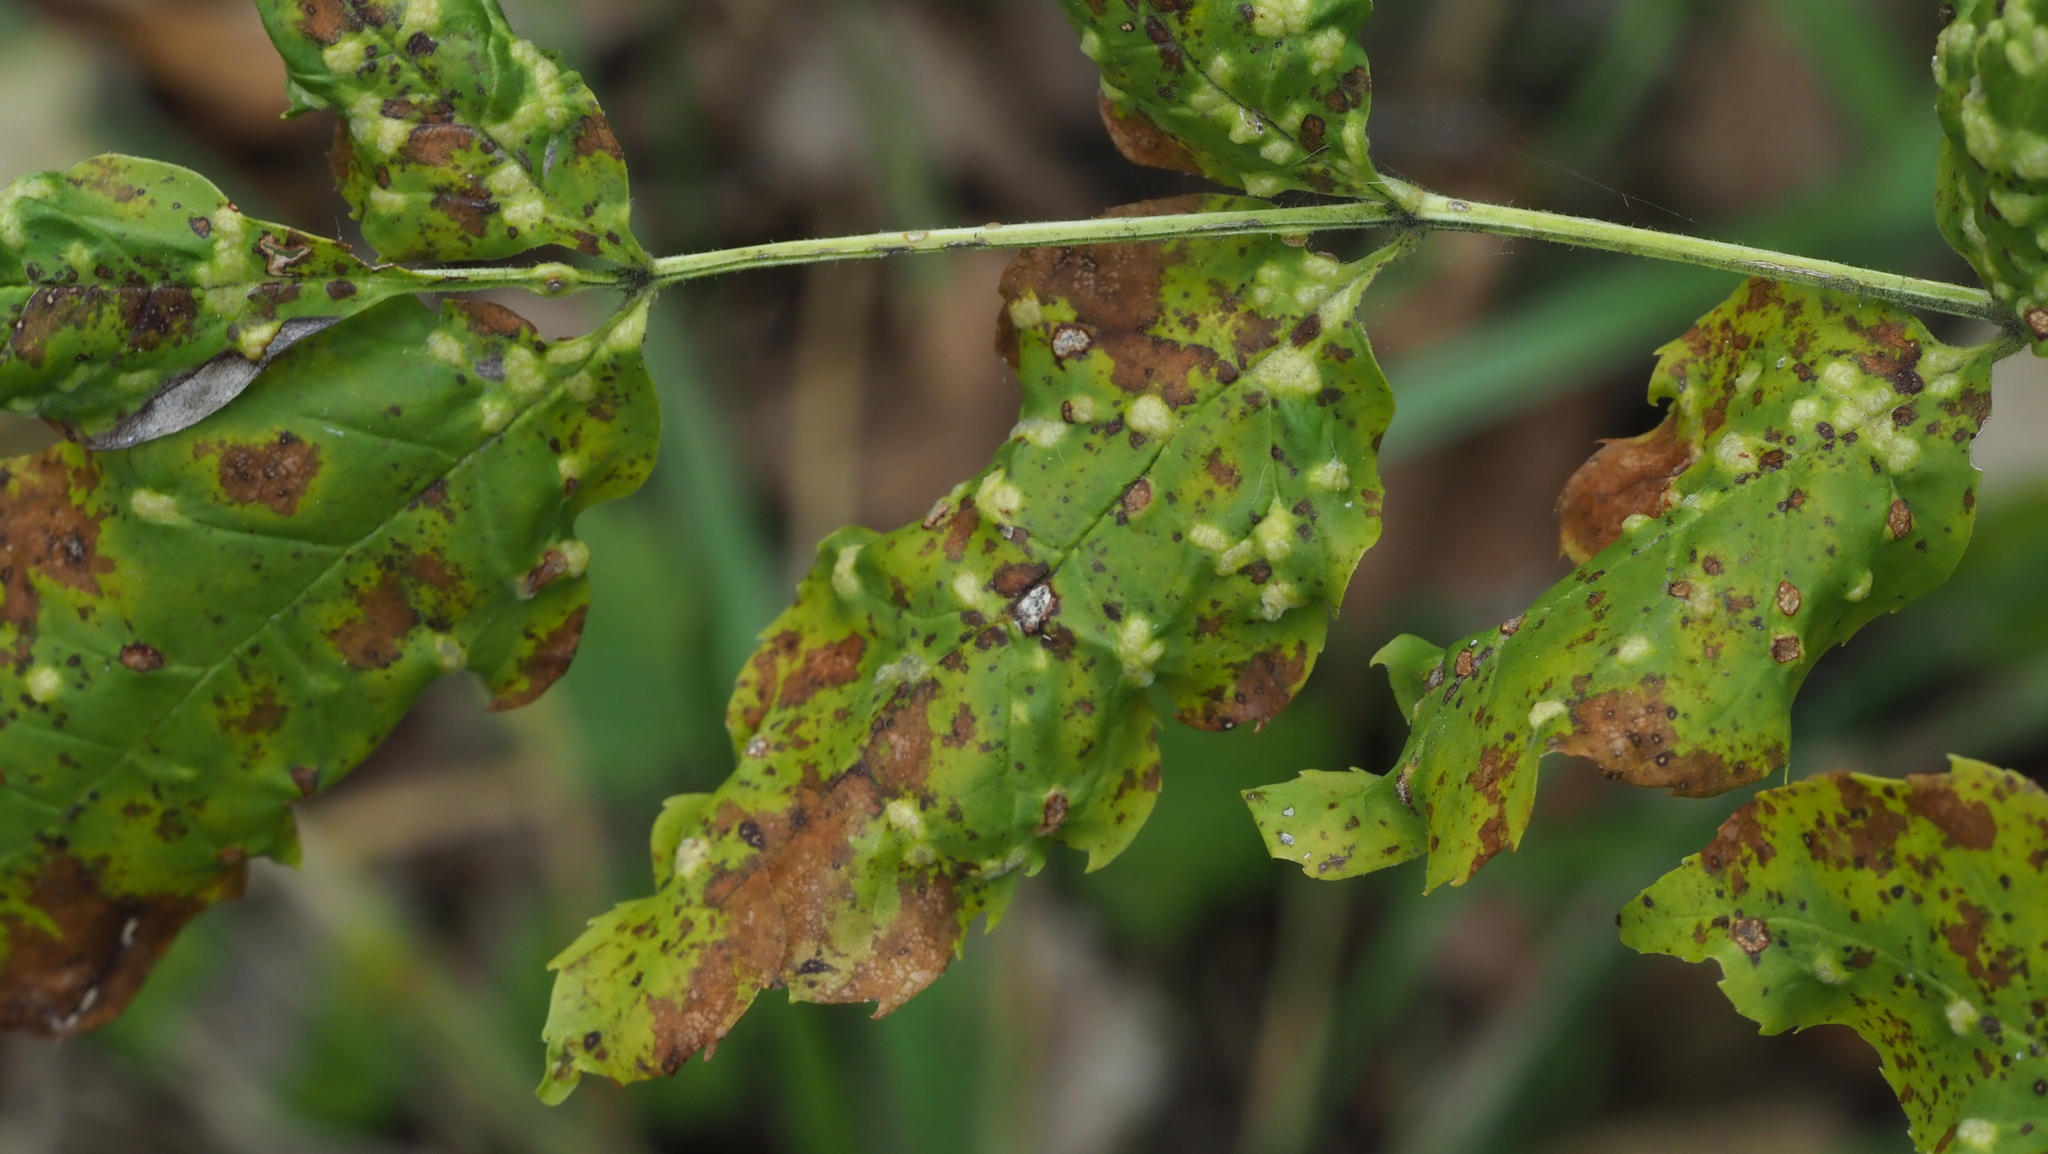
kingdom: Animalia
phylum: Arthropoda
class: Arachnida
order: Trombidiformes
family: Eriophyidae
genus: Aceria
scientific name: Aceria fraxinicola
